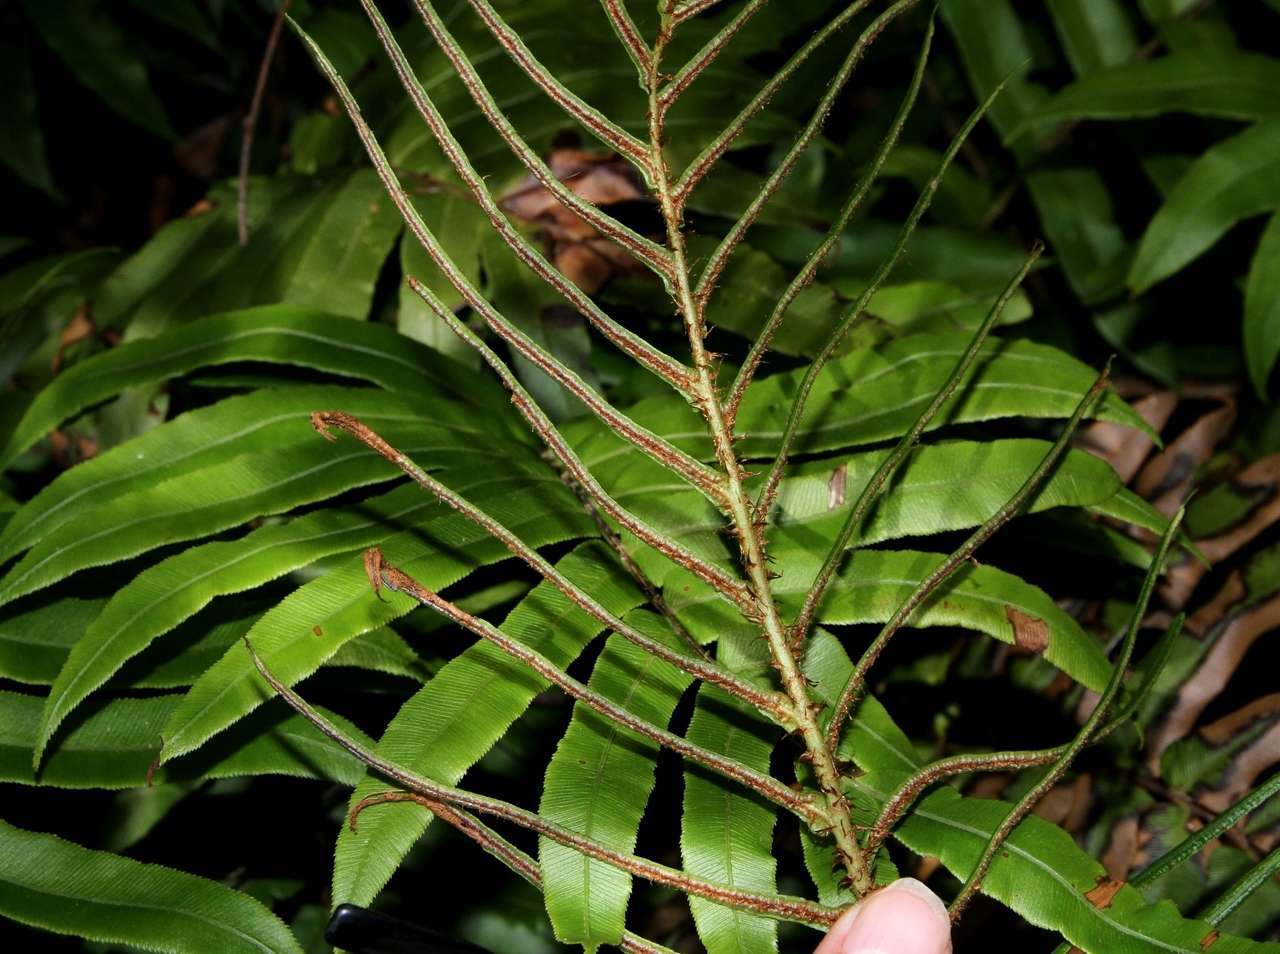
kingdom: Plantae
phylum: Tracheophyta
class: Polypodiopsida
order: Polypodiales
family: Blechnaceae
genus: Parablechnum
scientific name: Parablechnum wattsii
